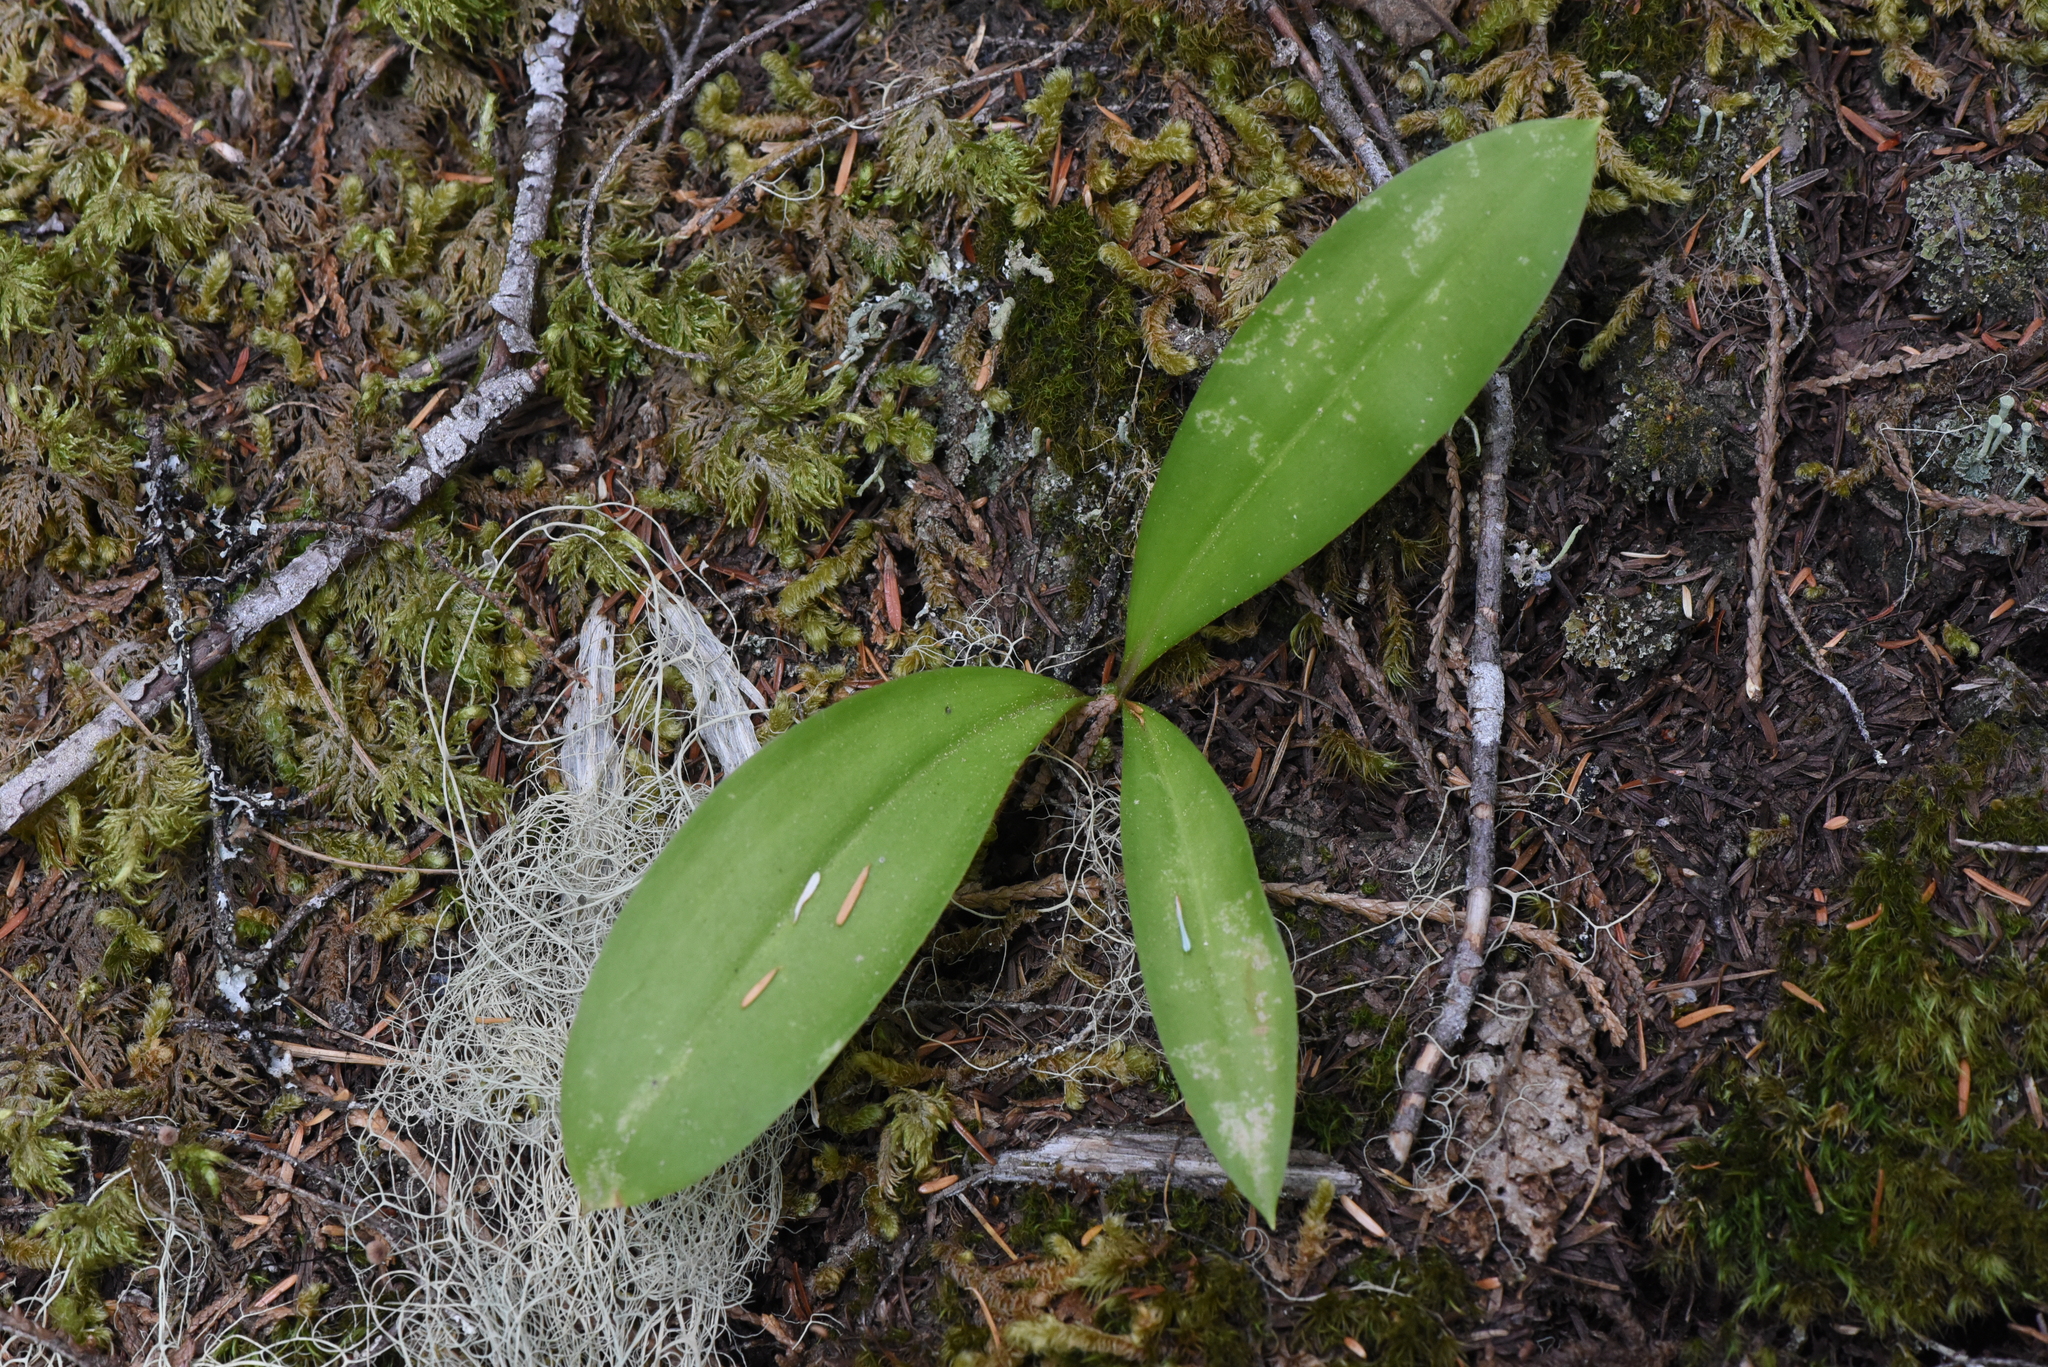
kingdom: Plantae
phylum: Tracheophyta
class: Liliopsida
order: Liliales
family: Liliaceae
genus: Clintonia
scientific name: Clintonia uniflora
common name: Queen's cup
